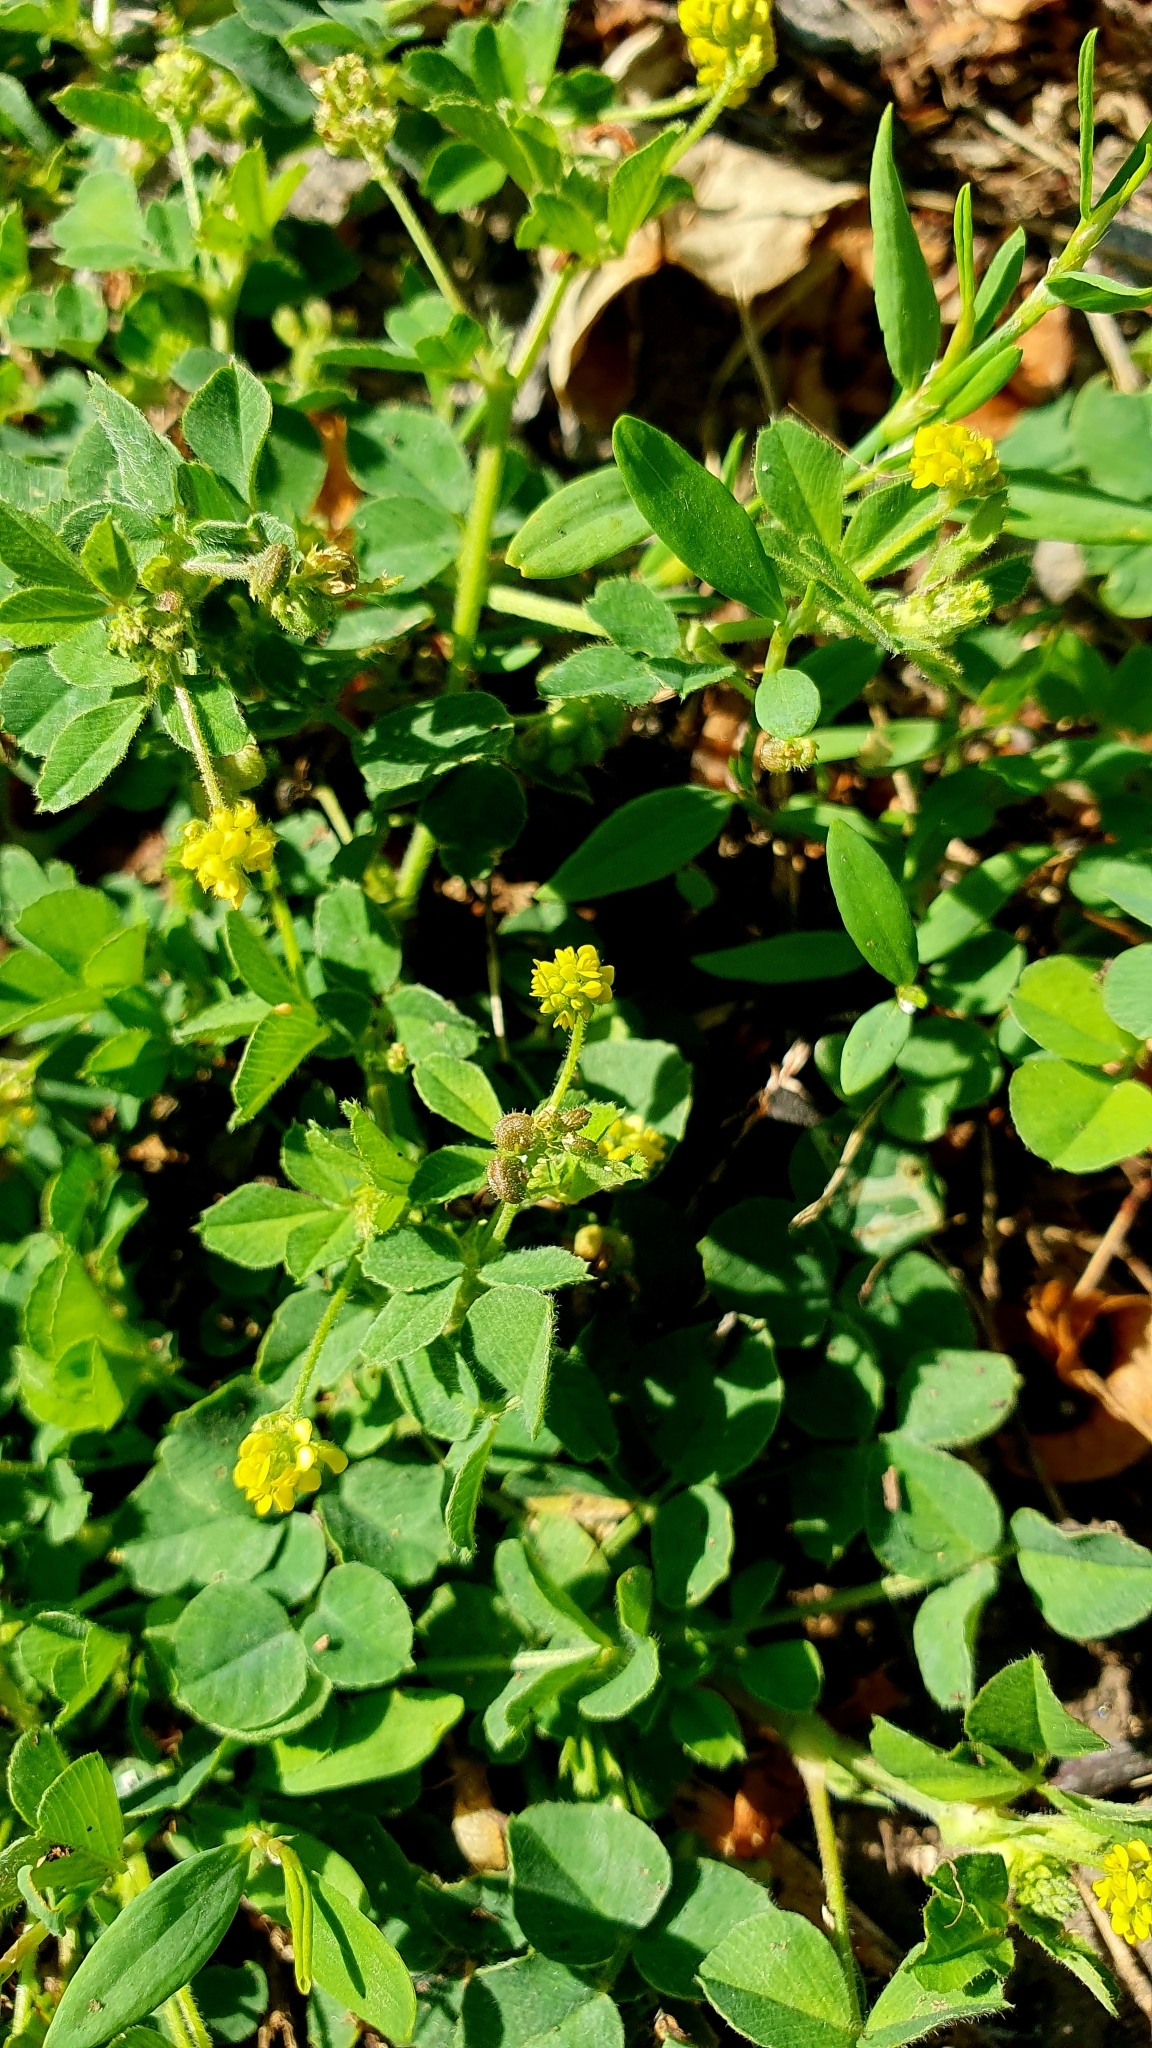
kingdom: Plantae
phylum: Tracheophyta
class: Magnoliopsida
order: Fabales
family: Fabaceae
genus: Medicago
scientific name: Medicago lupulina
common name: Black medick
